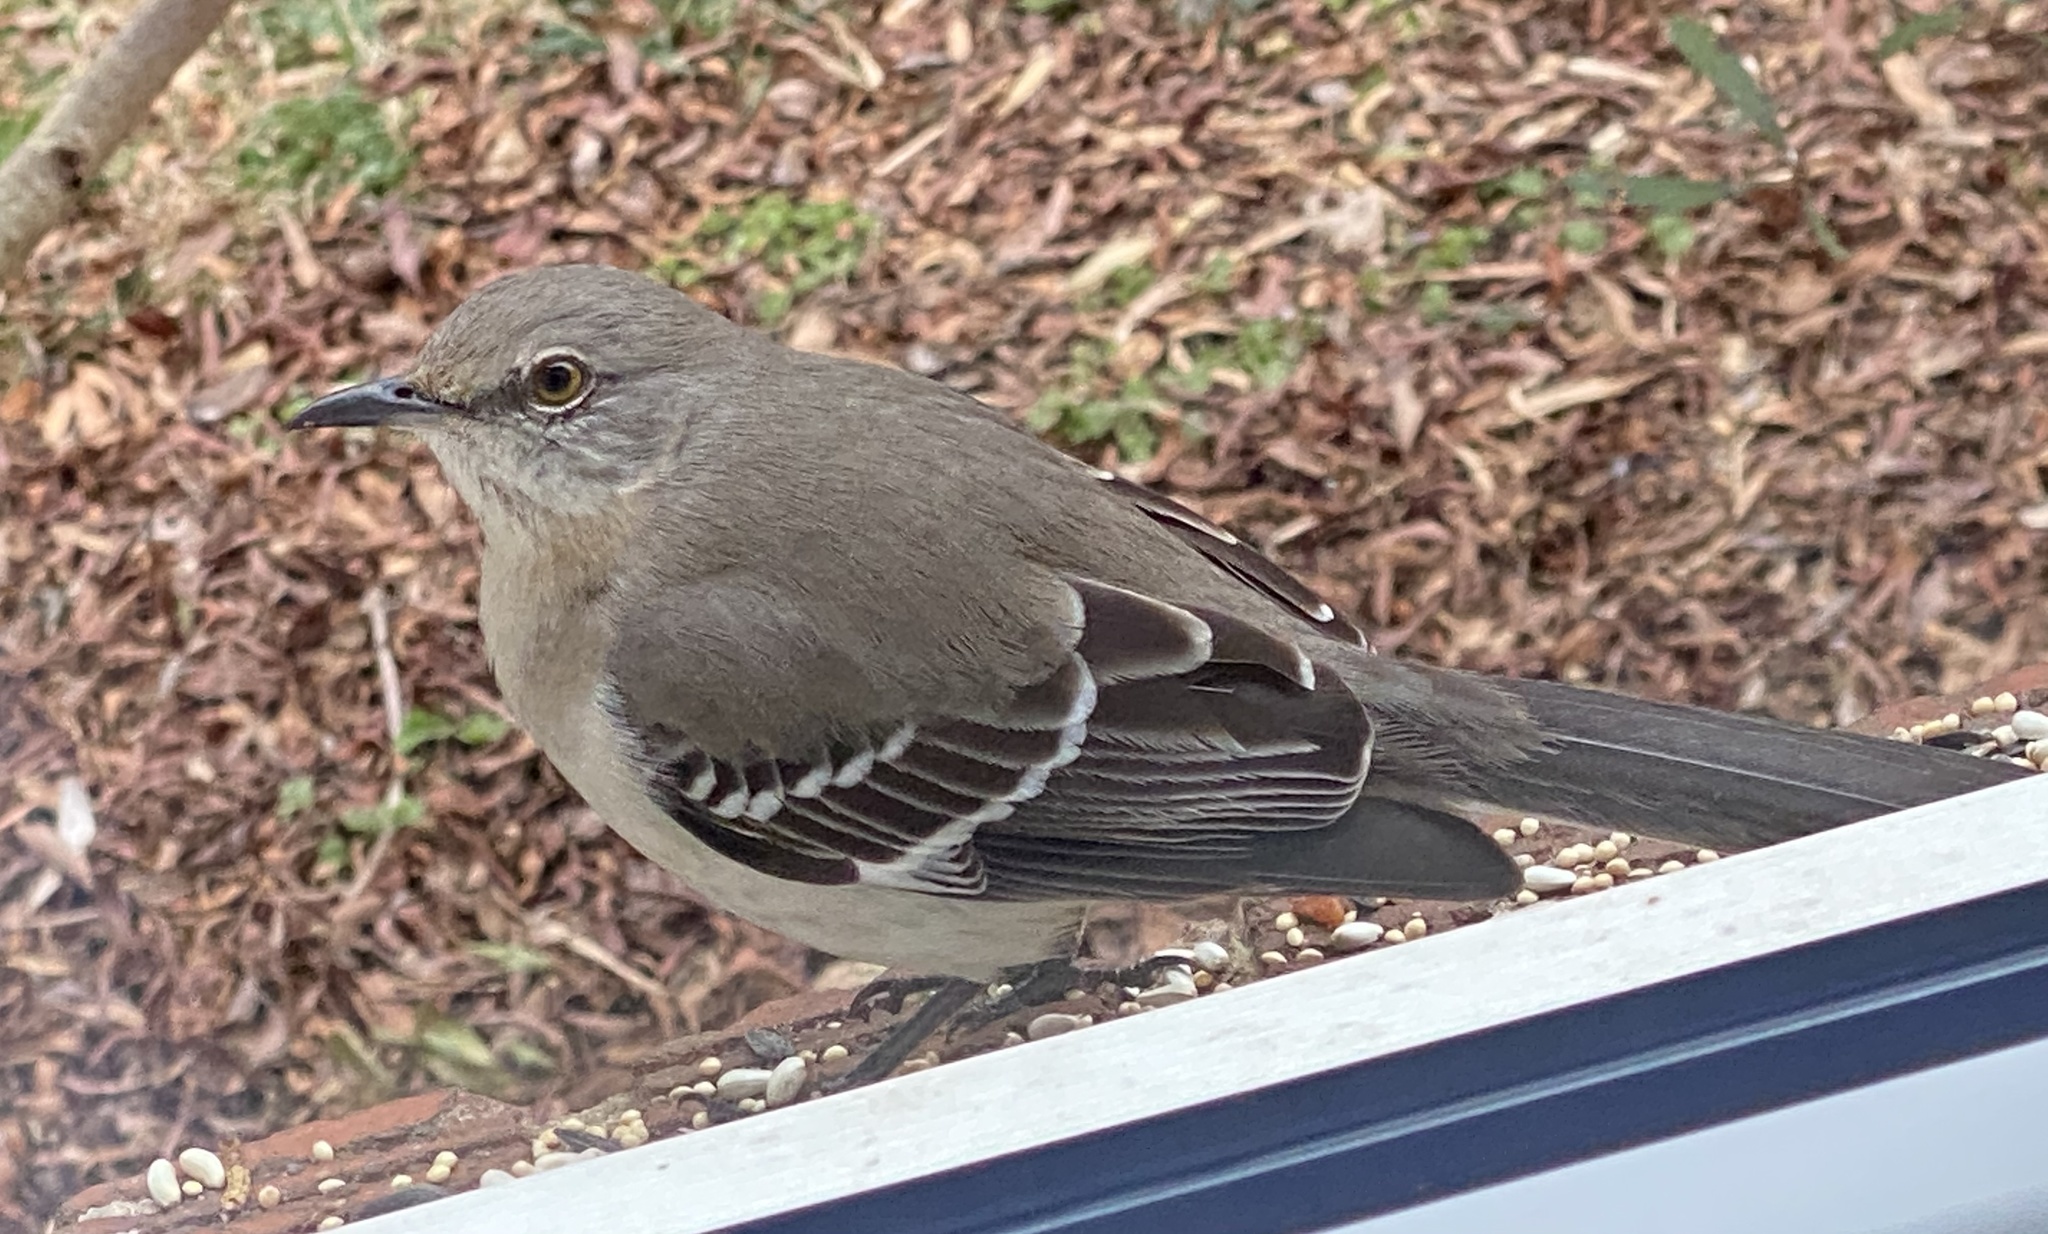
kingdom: Animalia
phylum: Chordata
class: Aves
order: Passeriformes
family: Mimidae
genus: Mimus
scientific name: Mimus polyglottos
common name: Northern mockingbird
